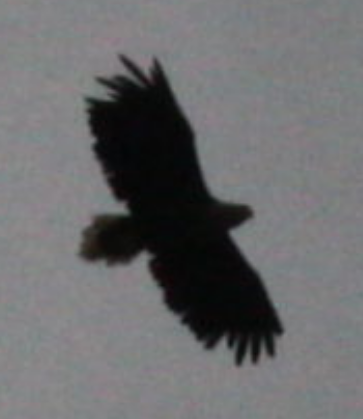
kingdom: Animalia
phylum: Chordata
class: Aves
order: Accipitriformes
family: Accipitridae
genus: Haliaeetus
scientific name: Haliaeetus albicilla
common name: White-tailed eagle
